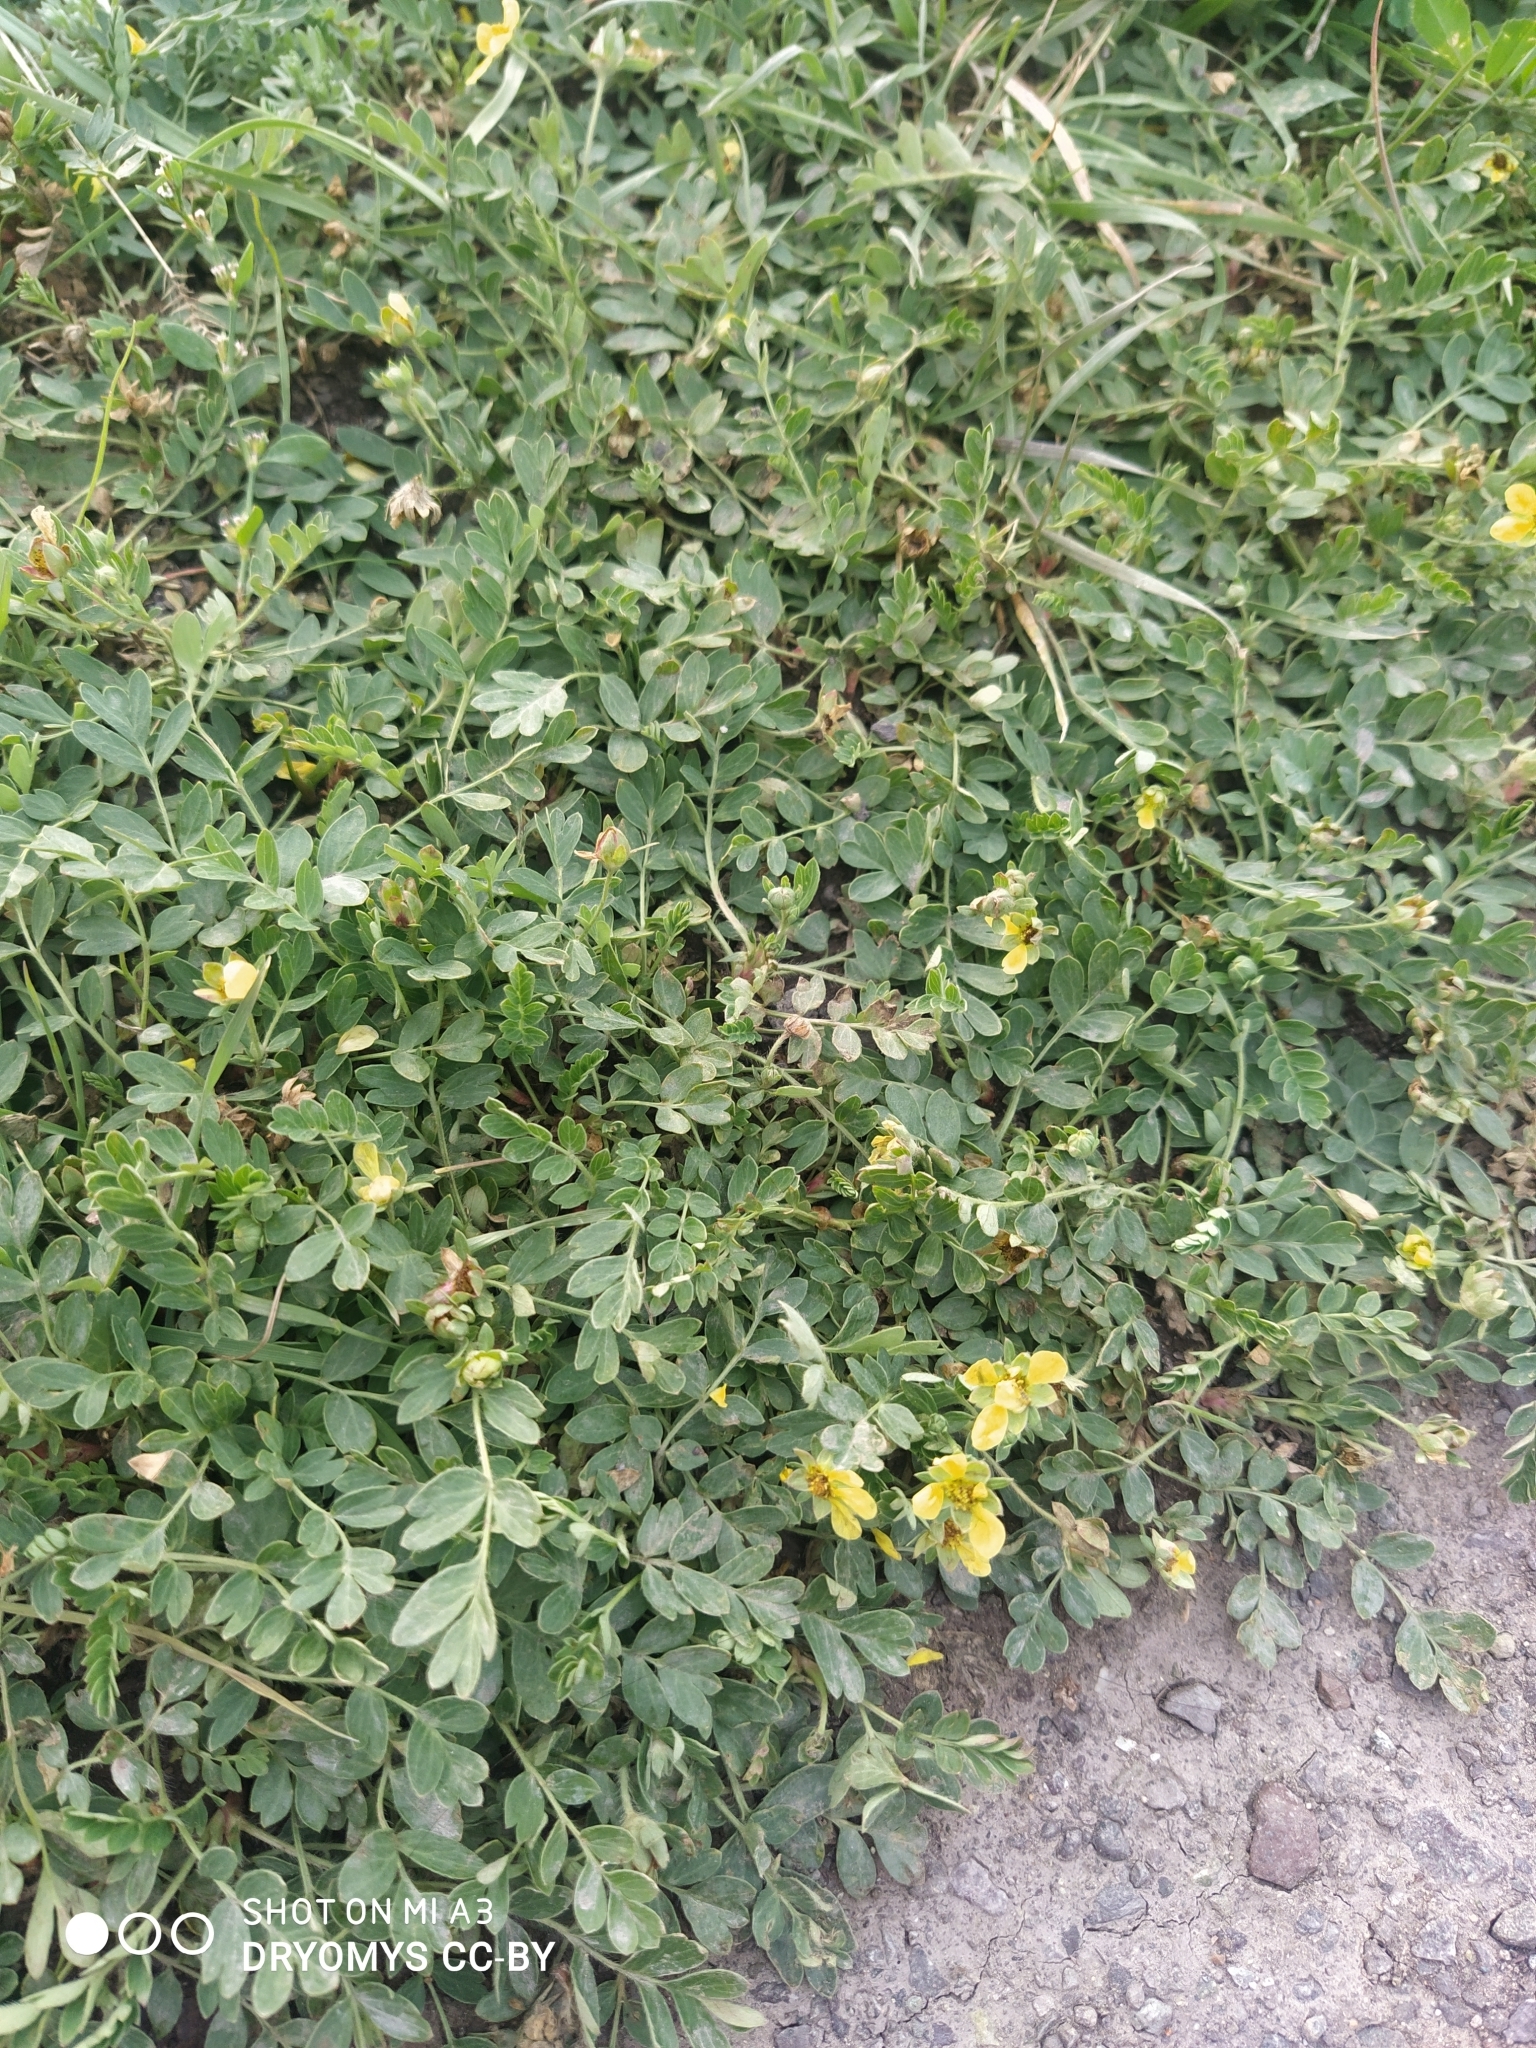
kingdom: Plantae
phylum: Tracheophyta
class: Magnoliopsida
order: Rosales
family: Rosaceae
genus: Sibbaldianthe
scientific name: Sibbaldianthe bifurca
